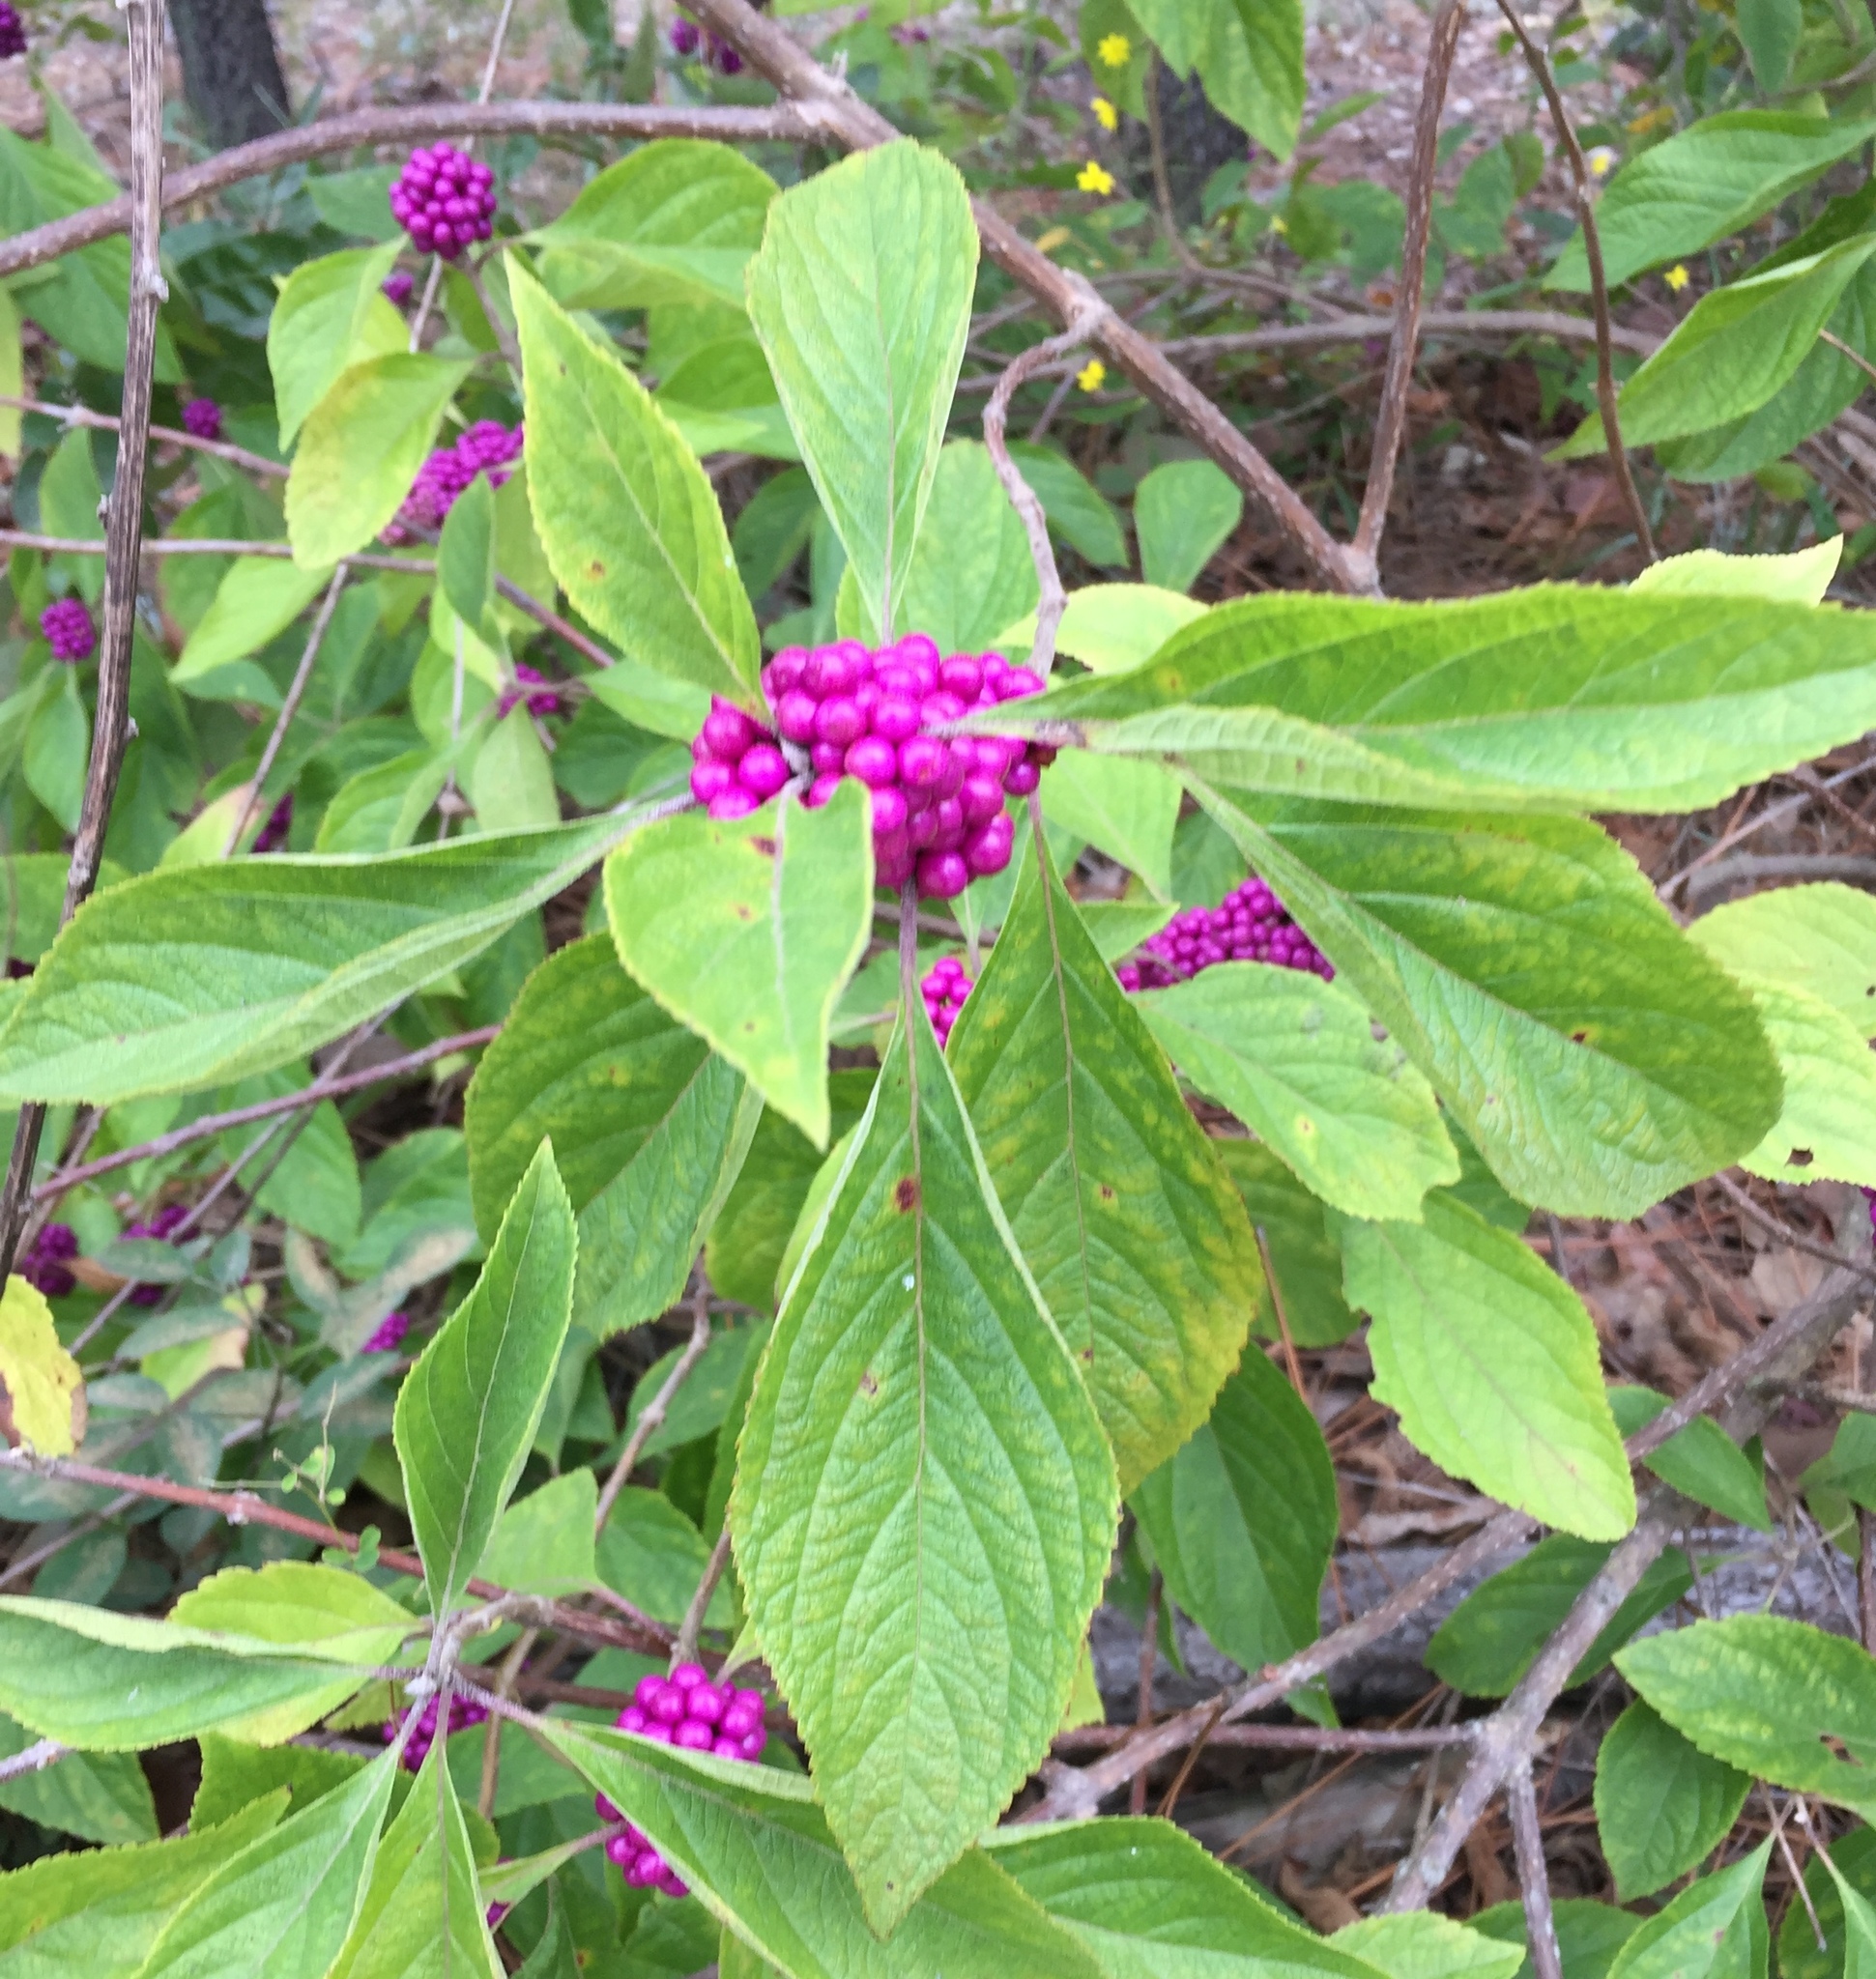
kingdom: Plantae
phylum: Tracheophyta
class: Magnoliopsida
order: Lamiales
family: Lamiaceae
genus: Callicarpa
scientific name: Callicarpa americana
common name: American beautyberry
